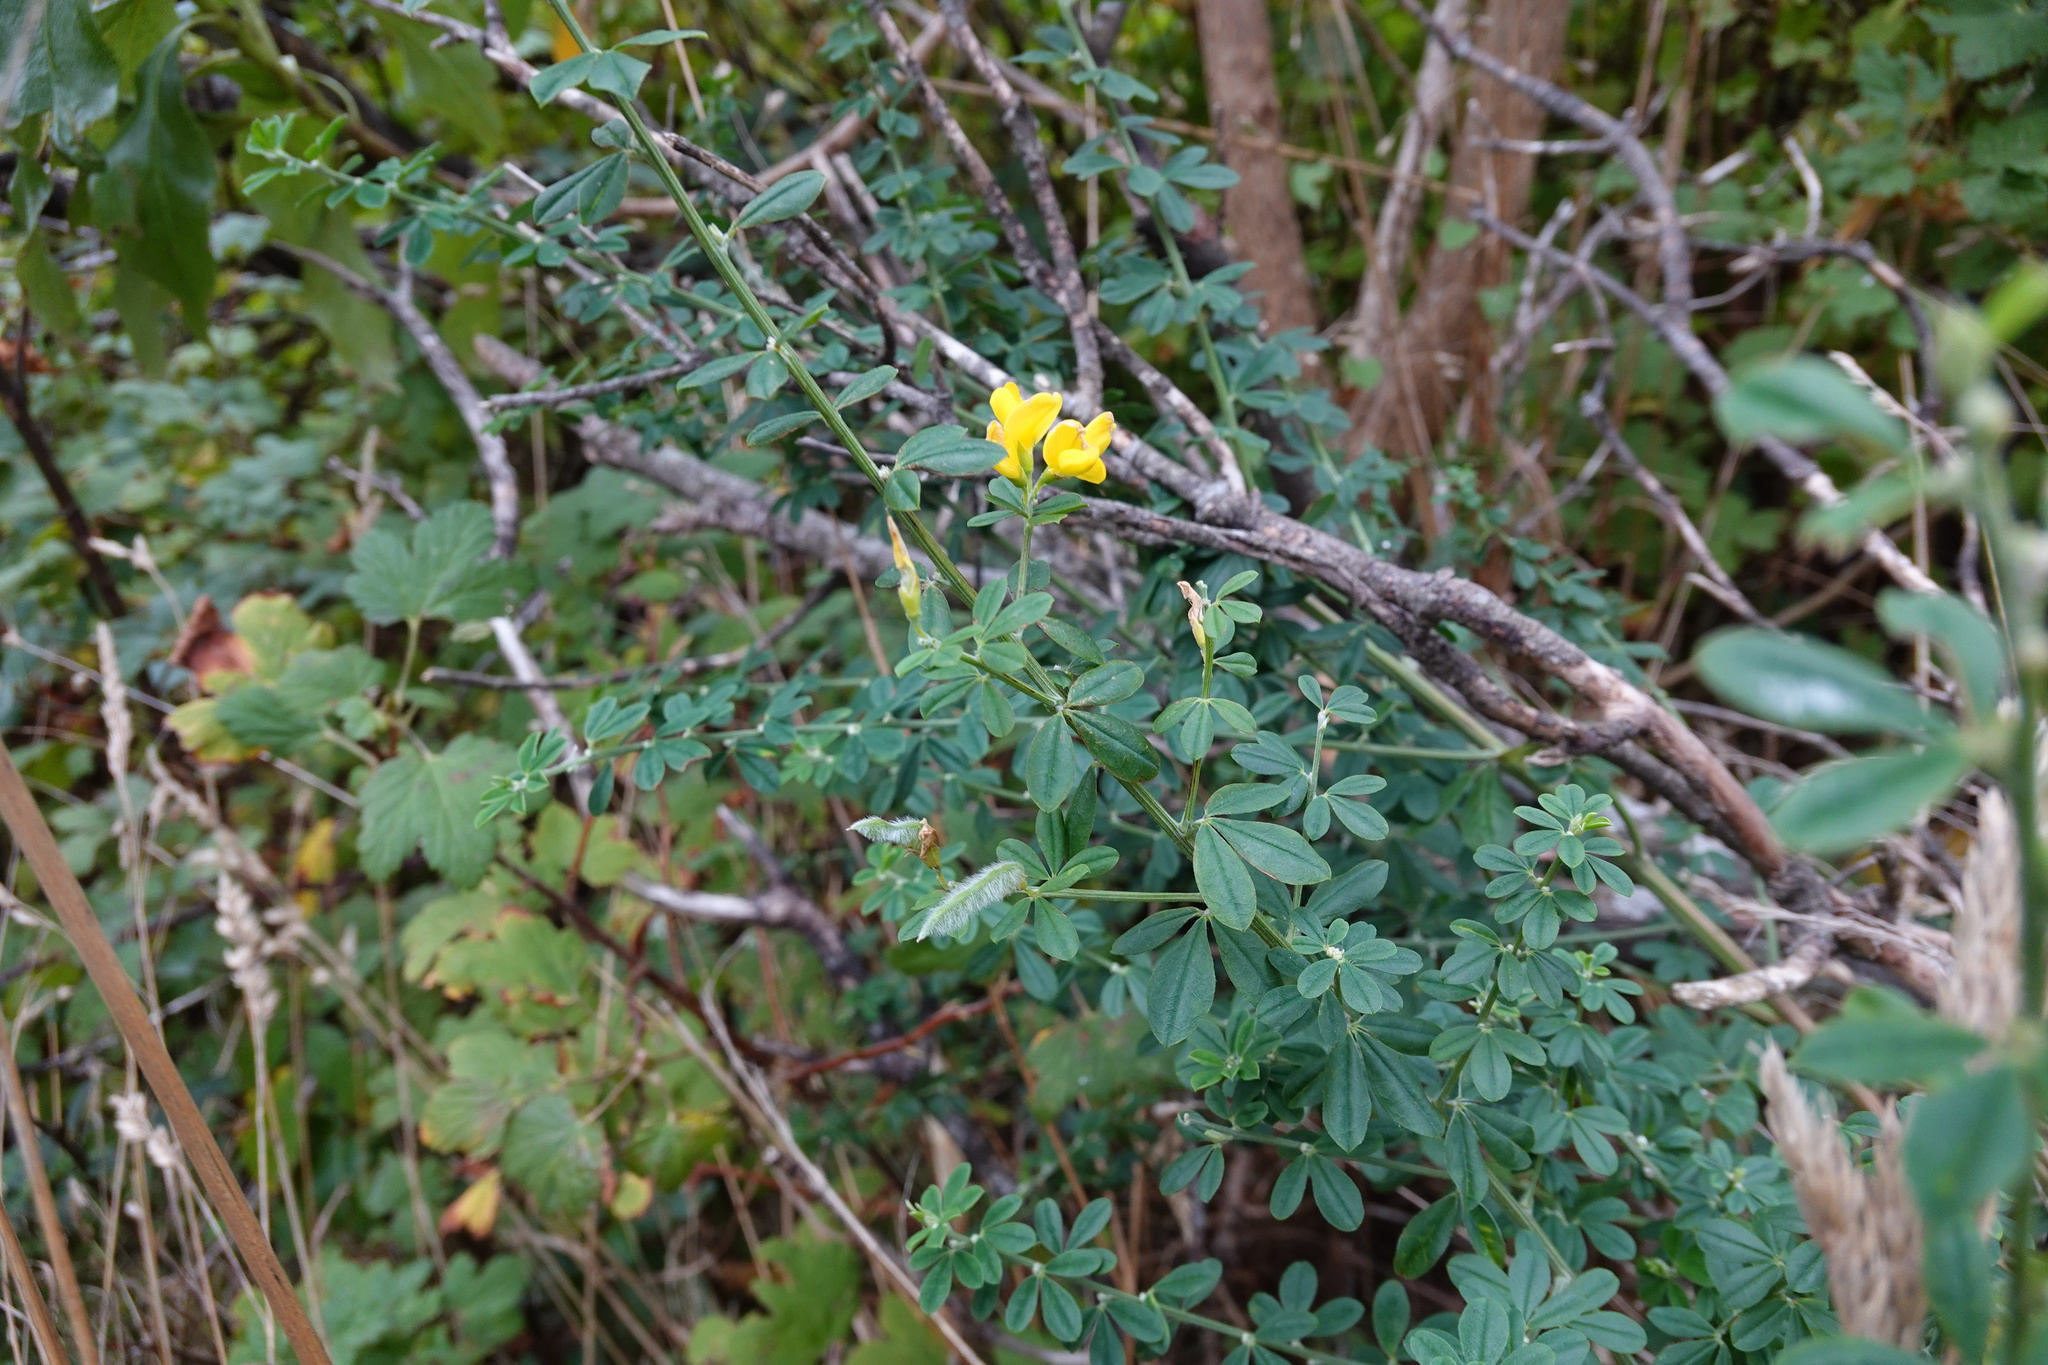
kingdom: Plantae
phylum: Tracheophyta
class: Magnoliopsida
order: Fabales
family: Fabaceae
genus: Genista
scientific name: Genista monspessulana
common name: Montpellier broom
